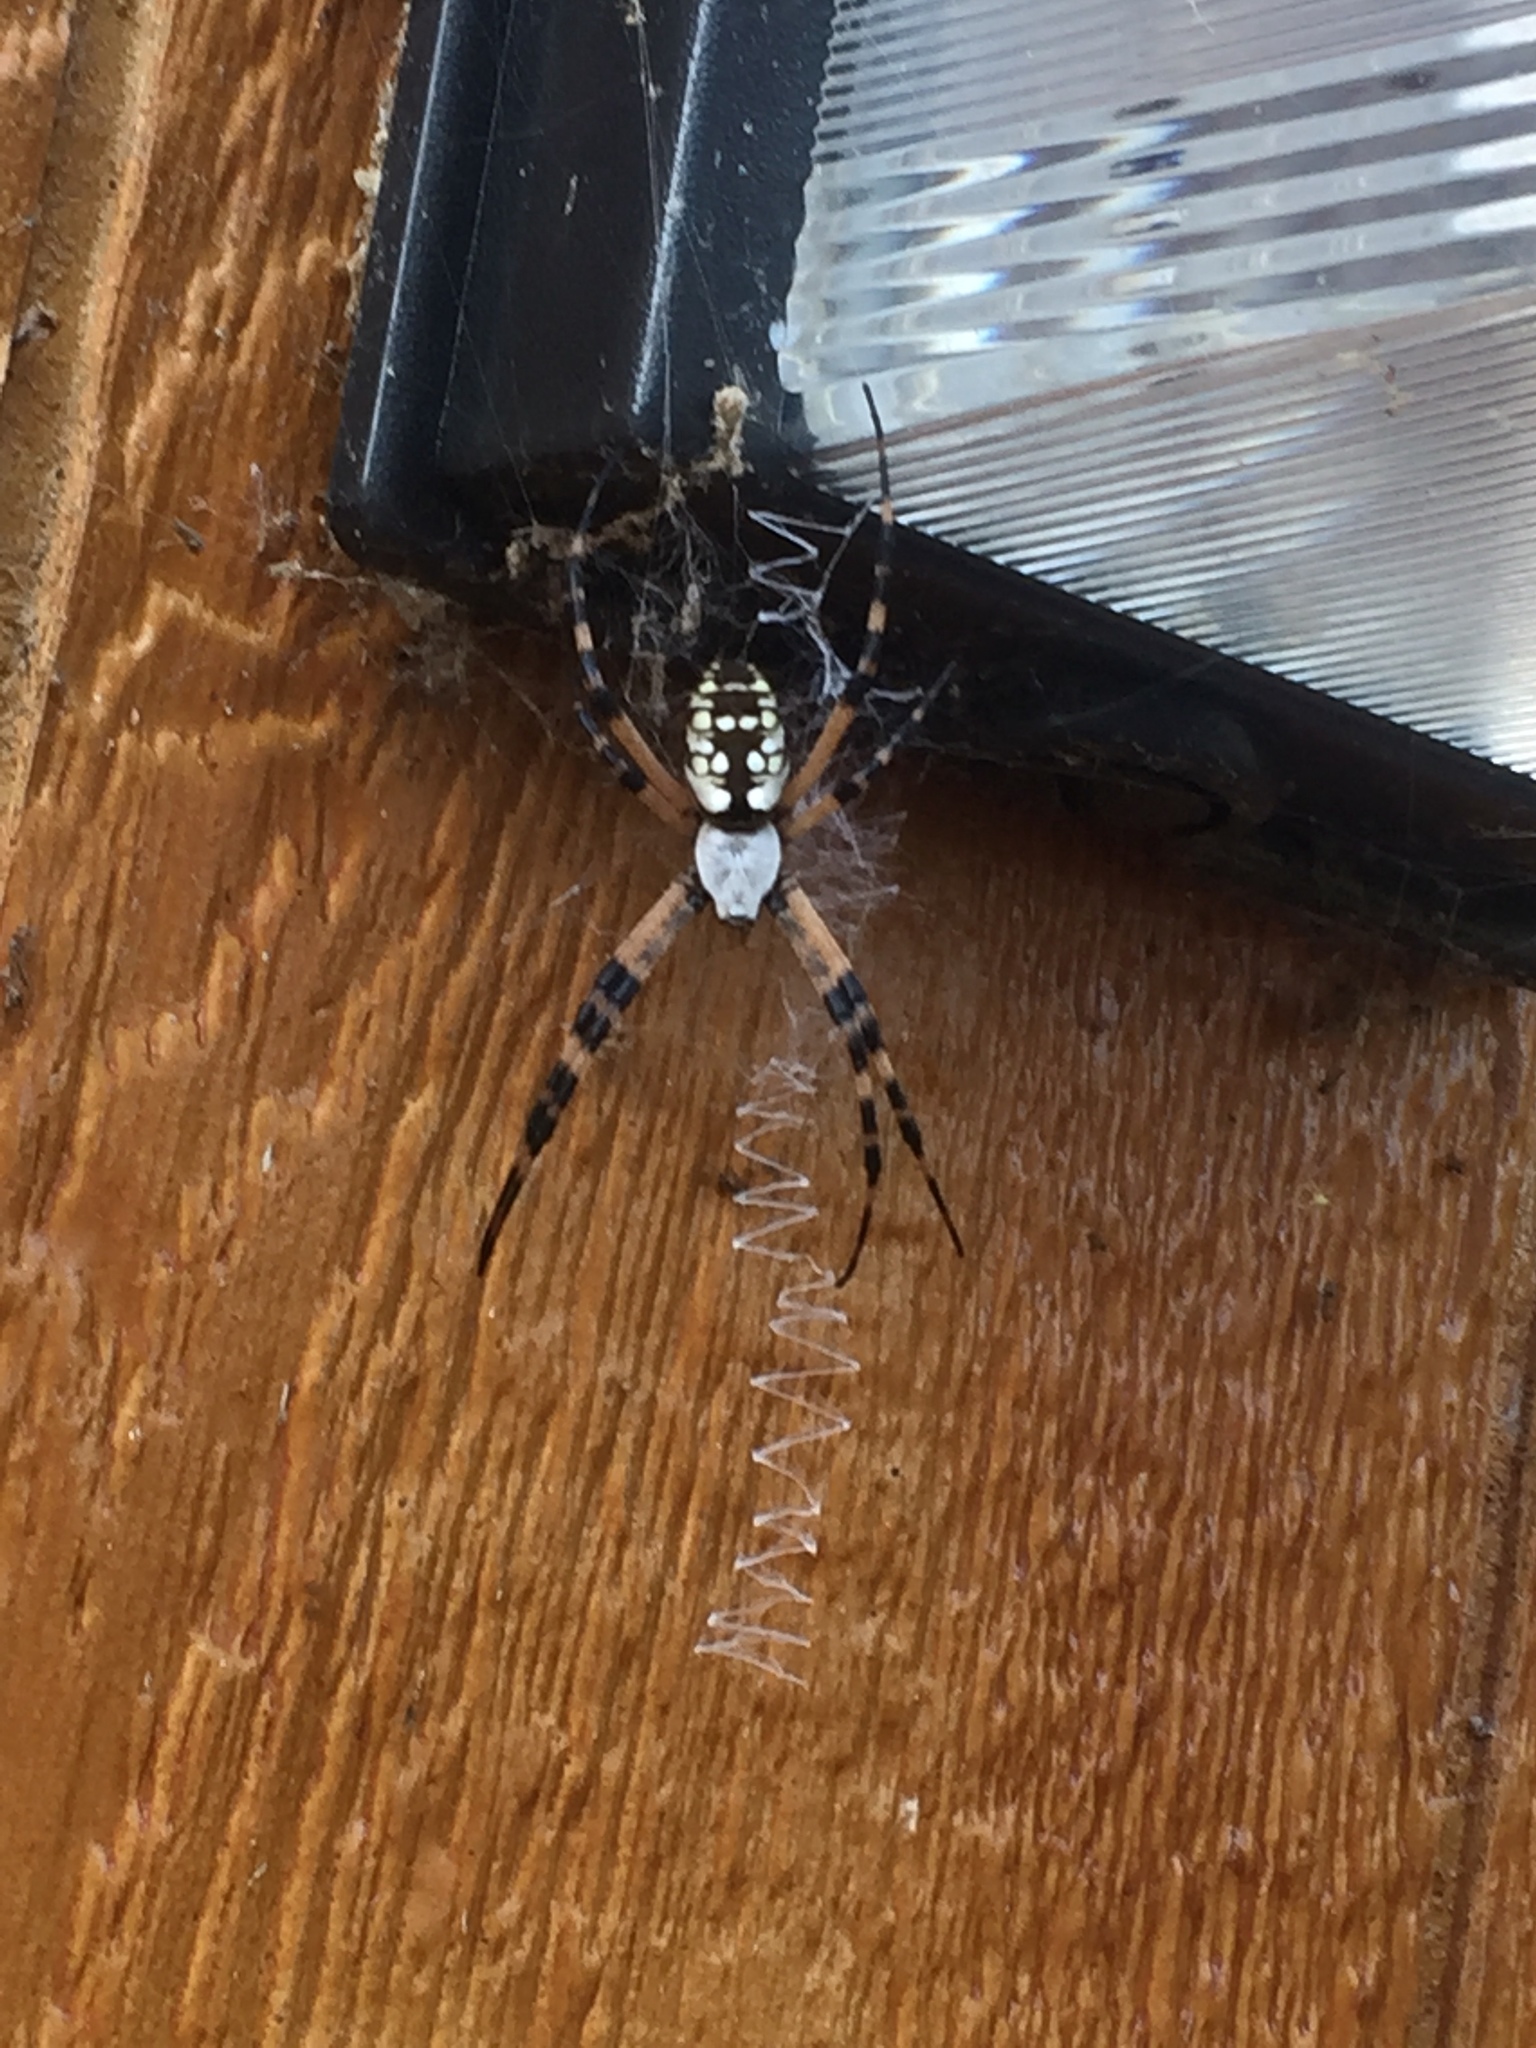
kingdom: Animalia
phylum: Arthropoda
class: Arachnida
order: Araneae
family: Araneidae
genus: Argiope
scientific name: Argiope aurantia
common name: Orb weavers
